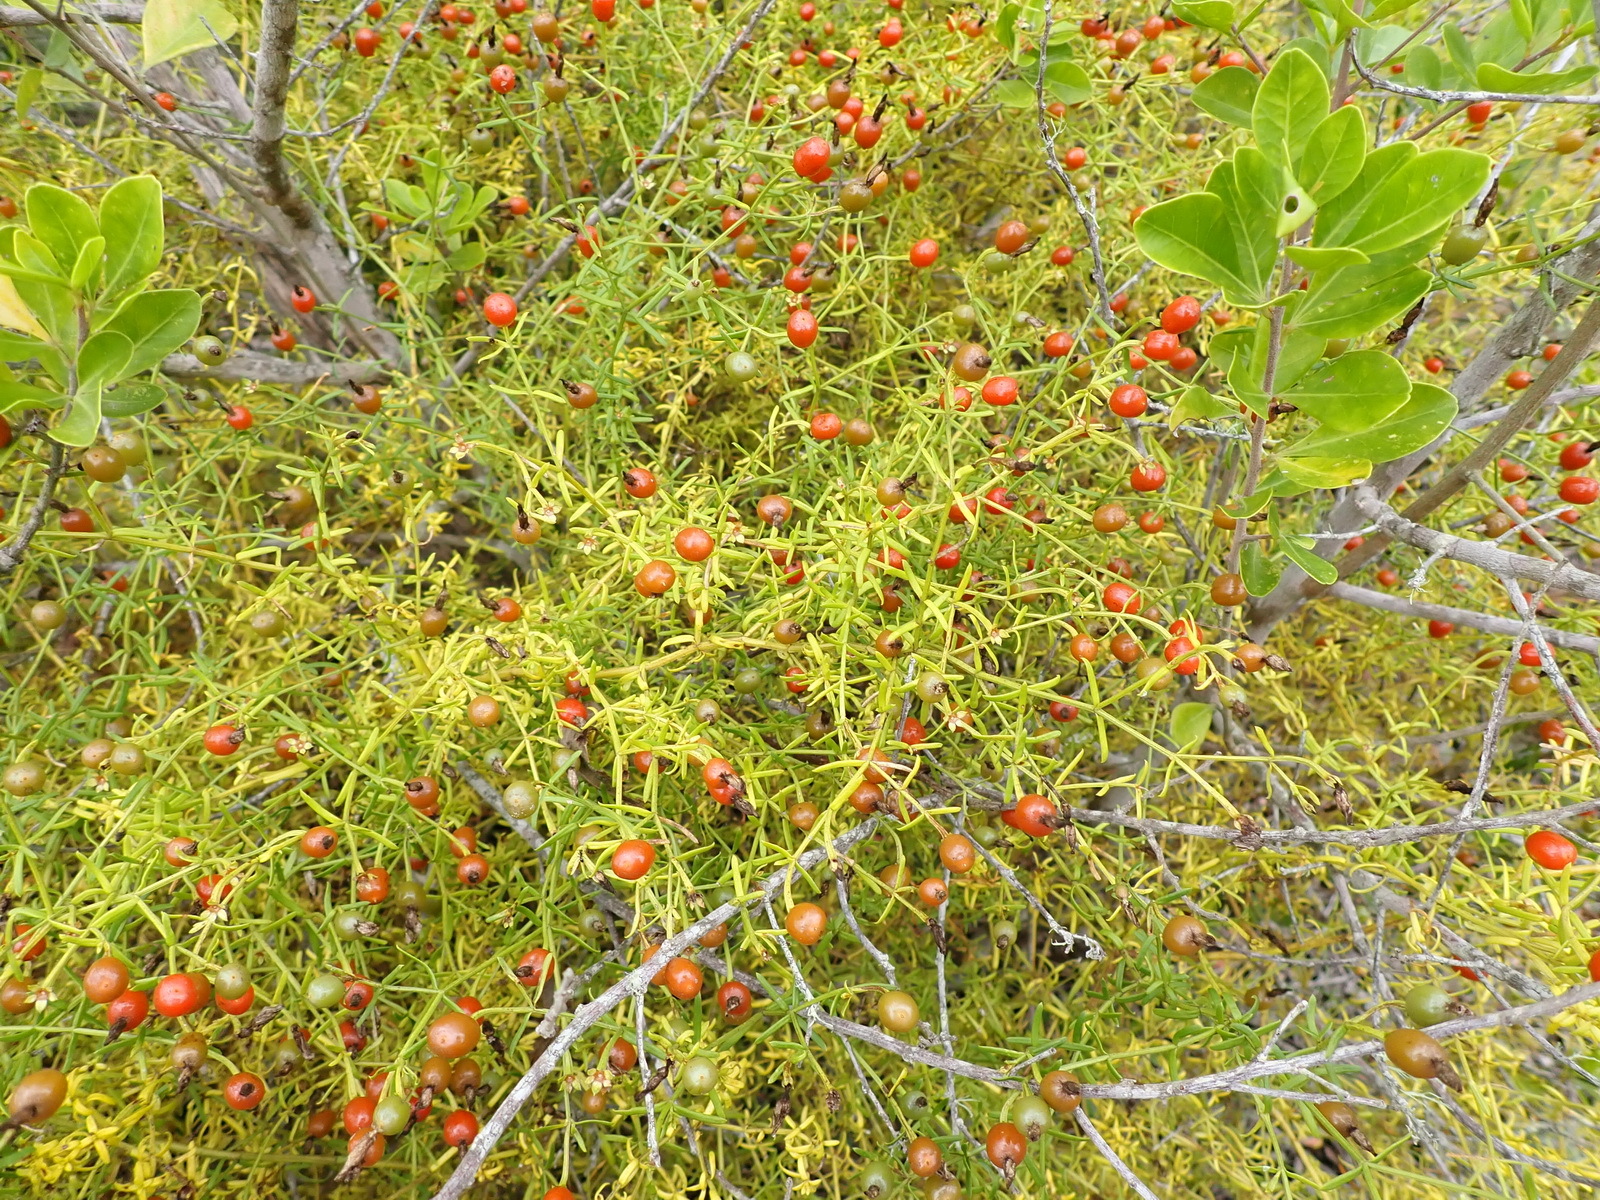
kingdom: Plantae
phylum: Tracheophyta
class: Magnoliopsida
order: Gentianales
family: Gentianaceae
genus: Chironia
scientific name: Chironia baccifera
